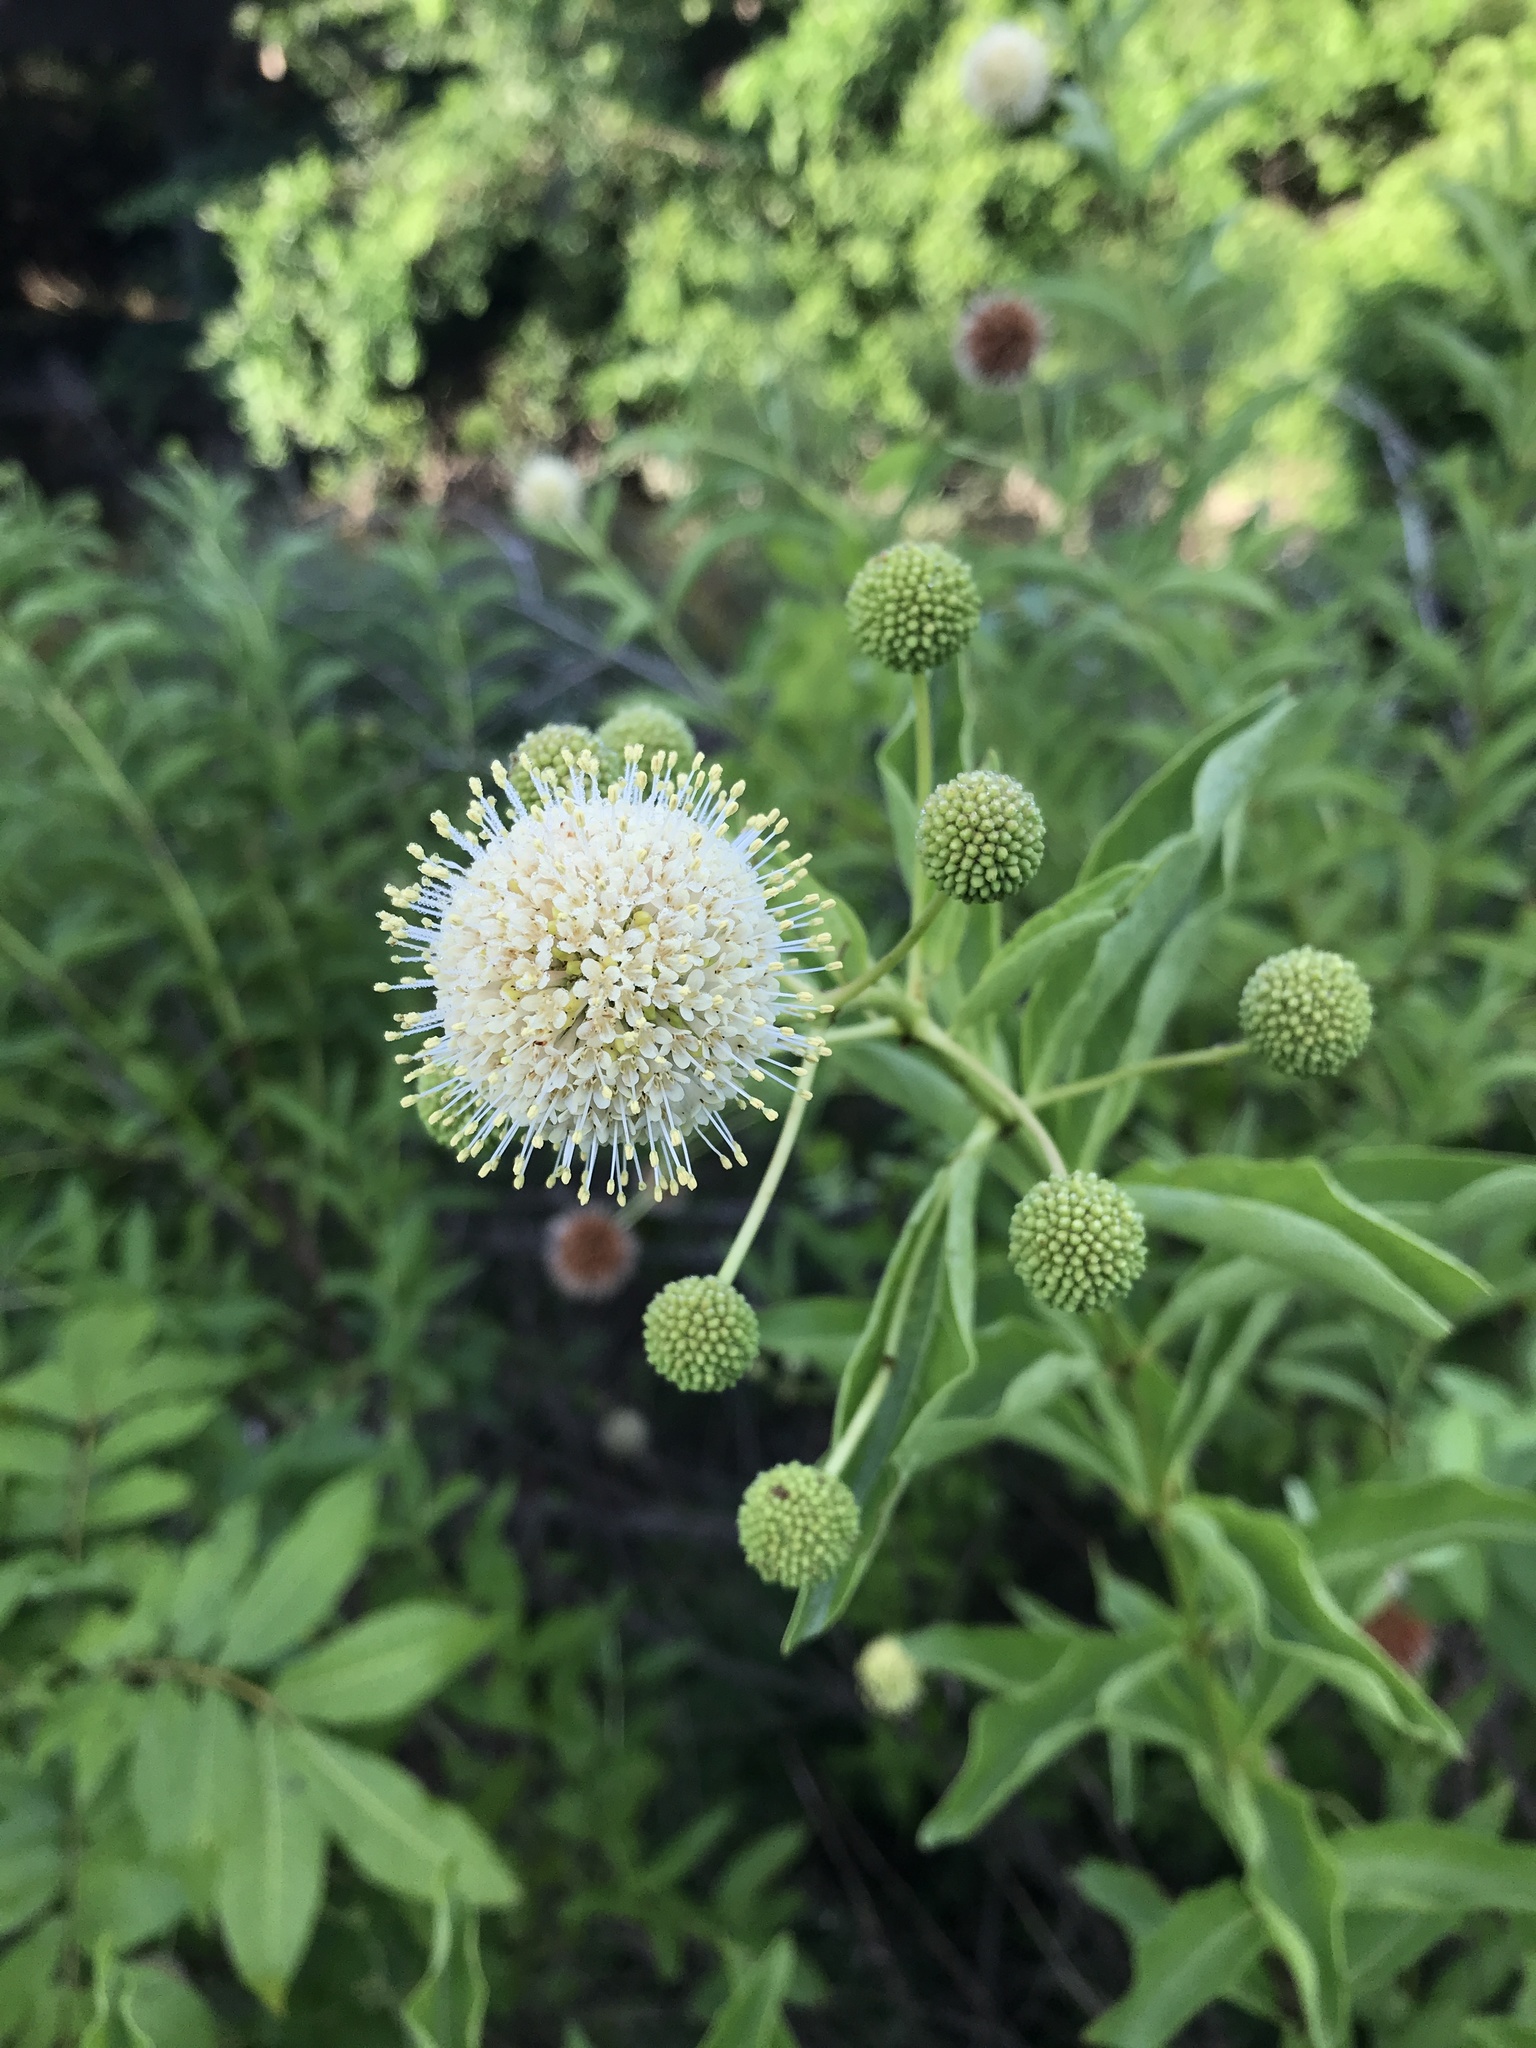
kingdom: Plantae
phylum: Tracheophyta
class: Magnoliopsida
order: Gentianales
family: Rubiaceae
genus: Cephalanthus
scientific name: Cephalanthus occidentalis
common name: Button-willow
